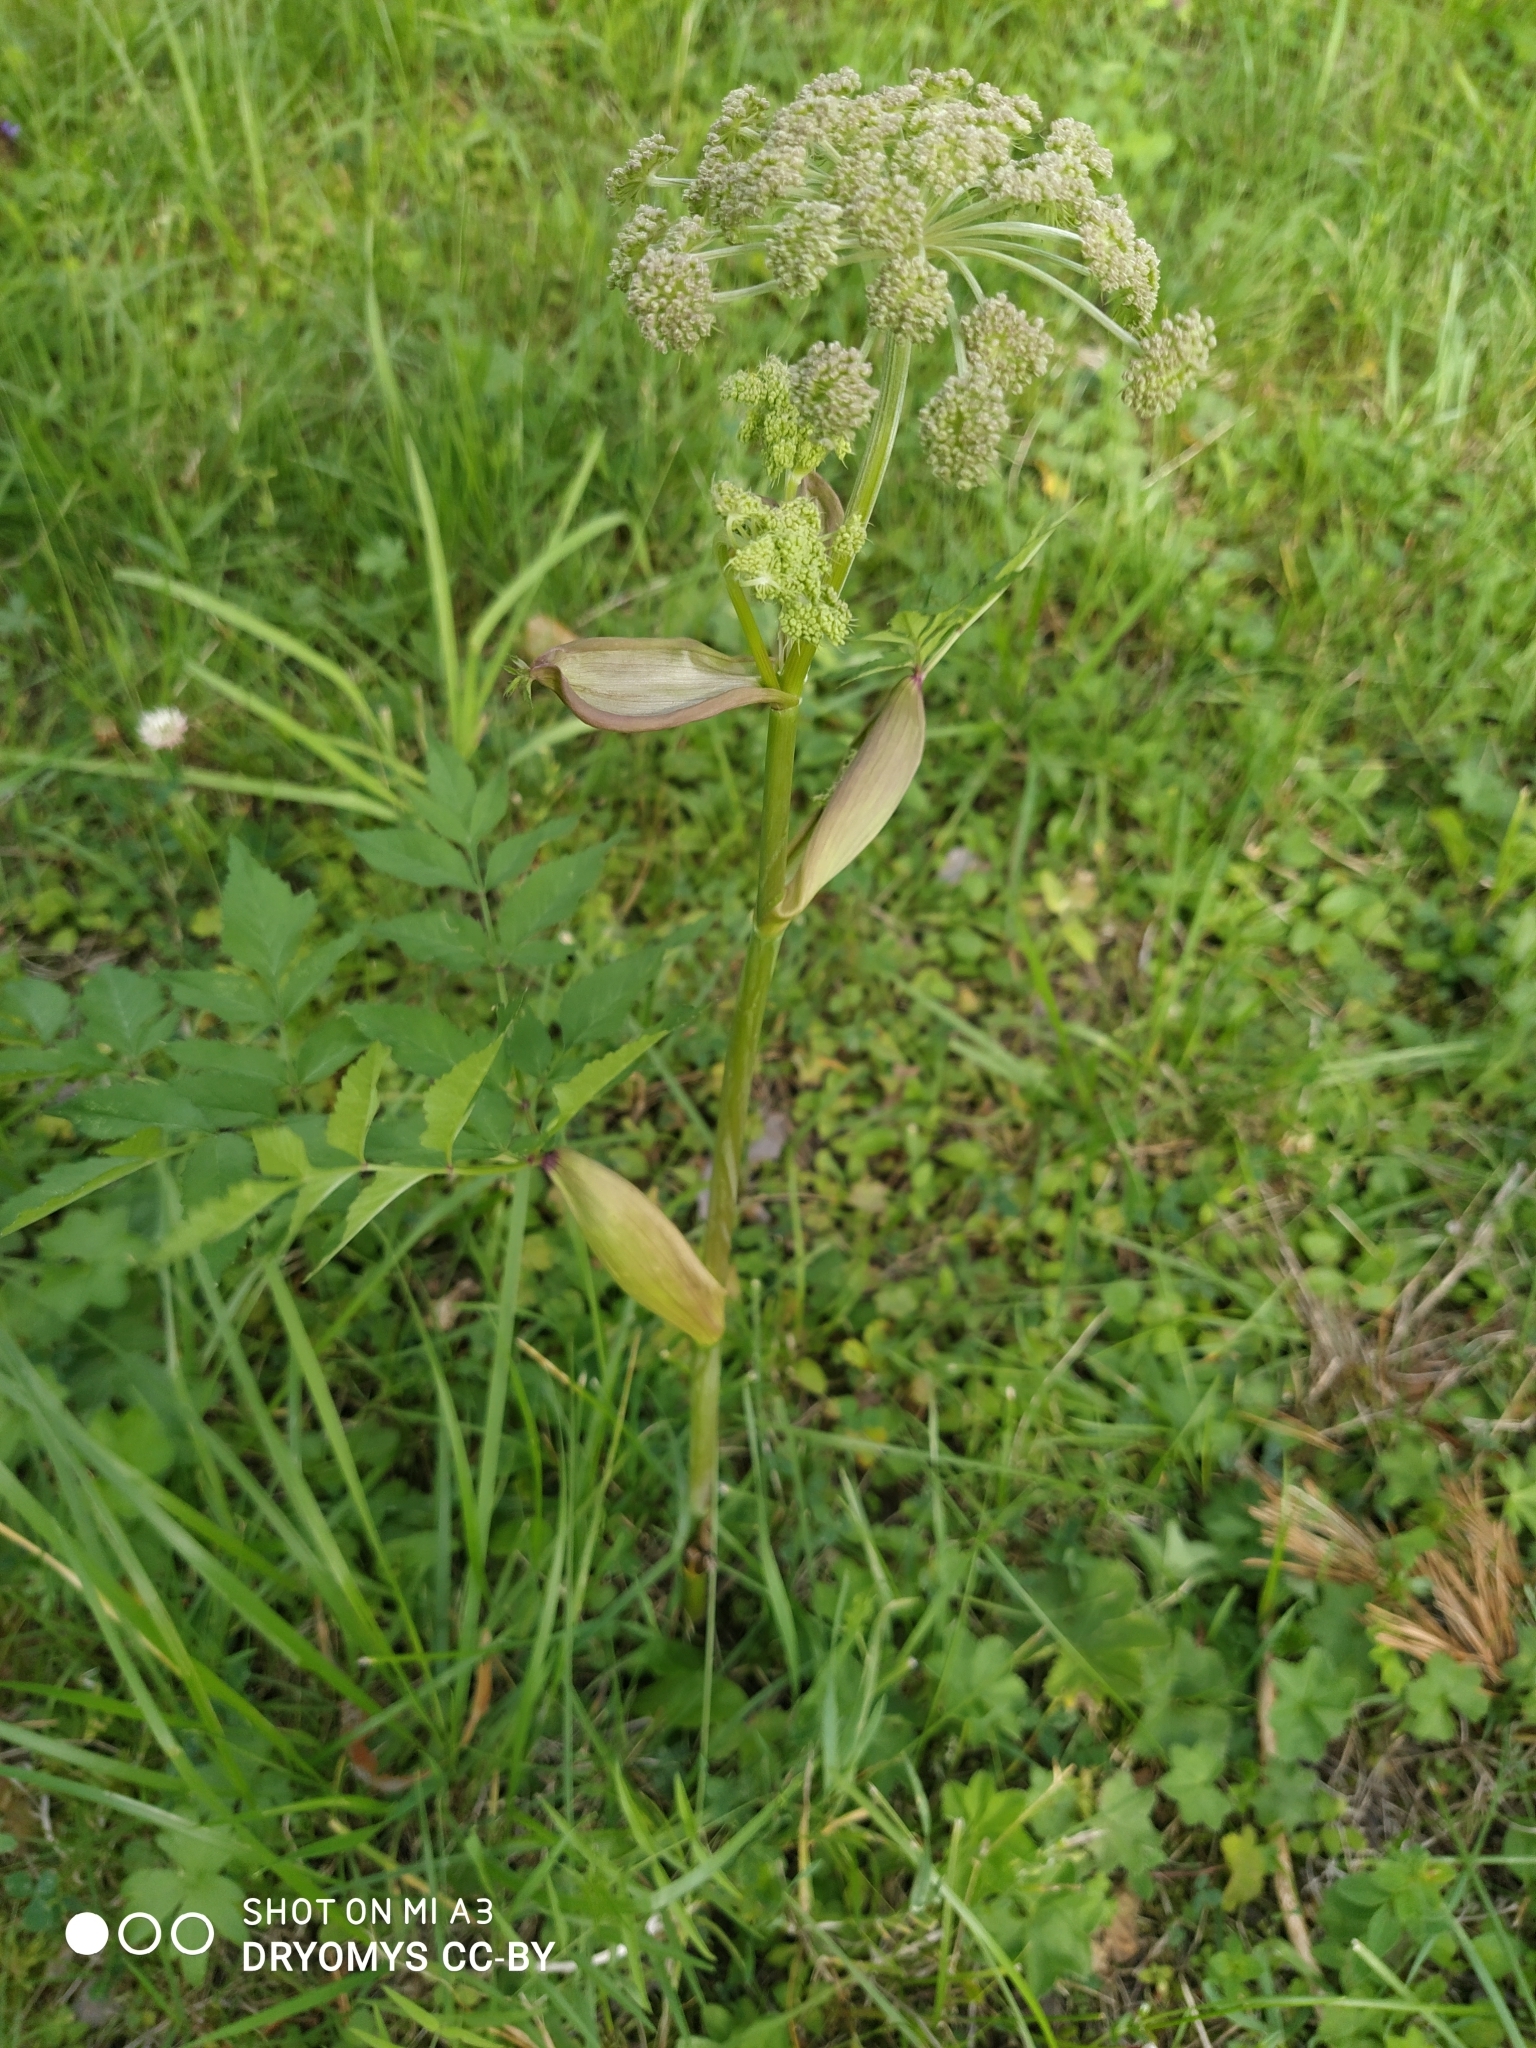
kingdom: Plantae
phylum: Tracheophyta
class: Magnoliopsida
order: Apiales
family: Apiaceae
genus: Angelica
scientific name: Angelica sylvestris
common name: Wild angelica
